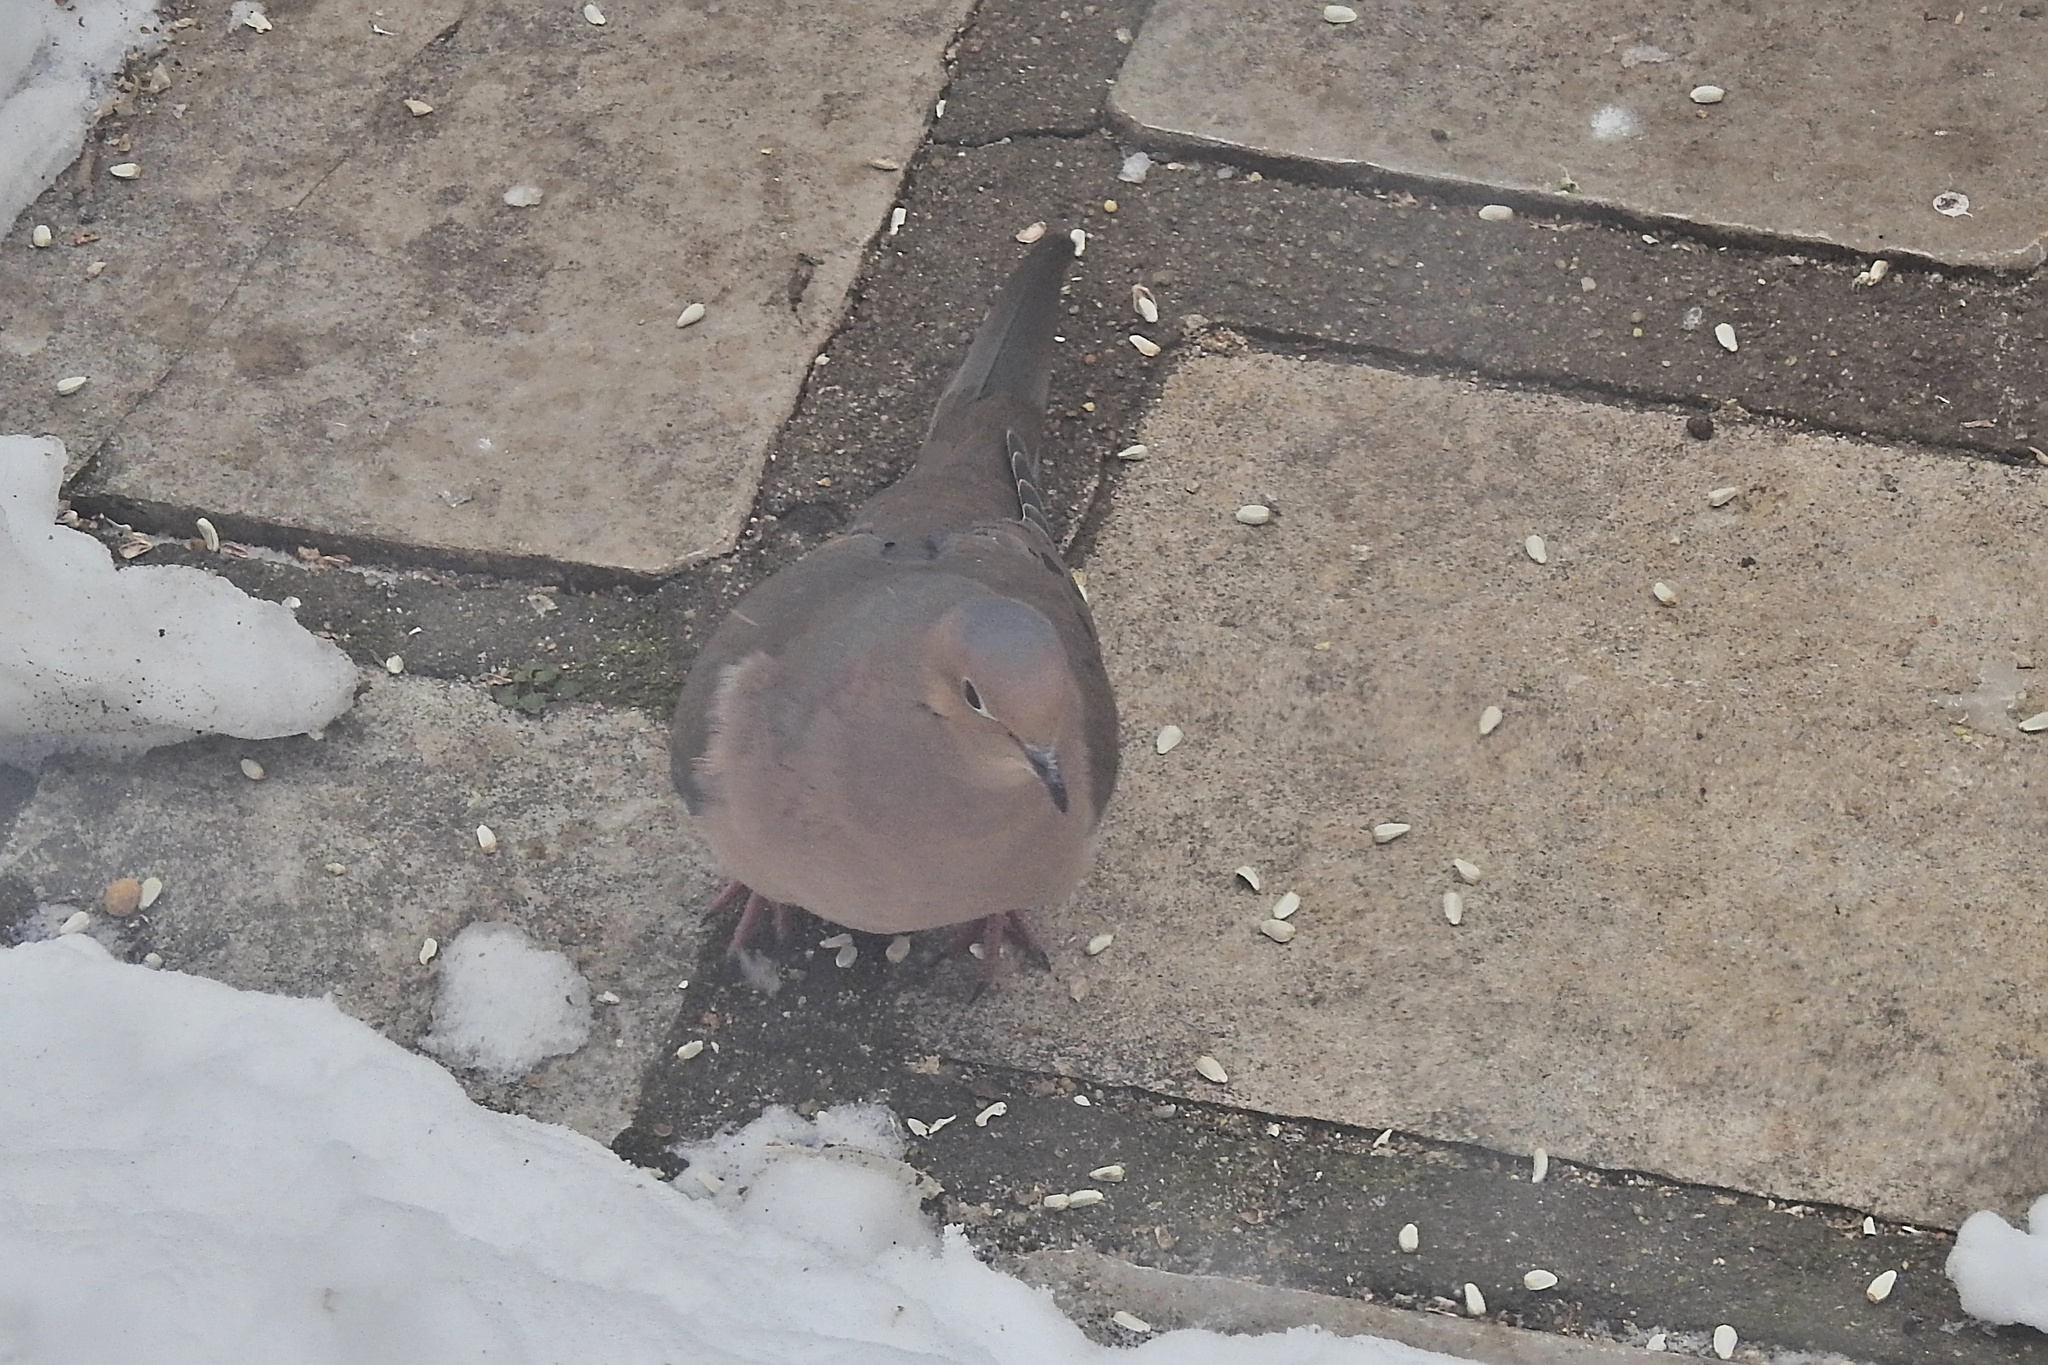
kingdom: Animalia
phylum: Chordata
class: Aves
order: Columbiformes
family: Columbidae
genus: Zenaida
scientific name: Zenaida macroura
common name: Mourning dove
